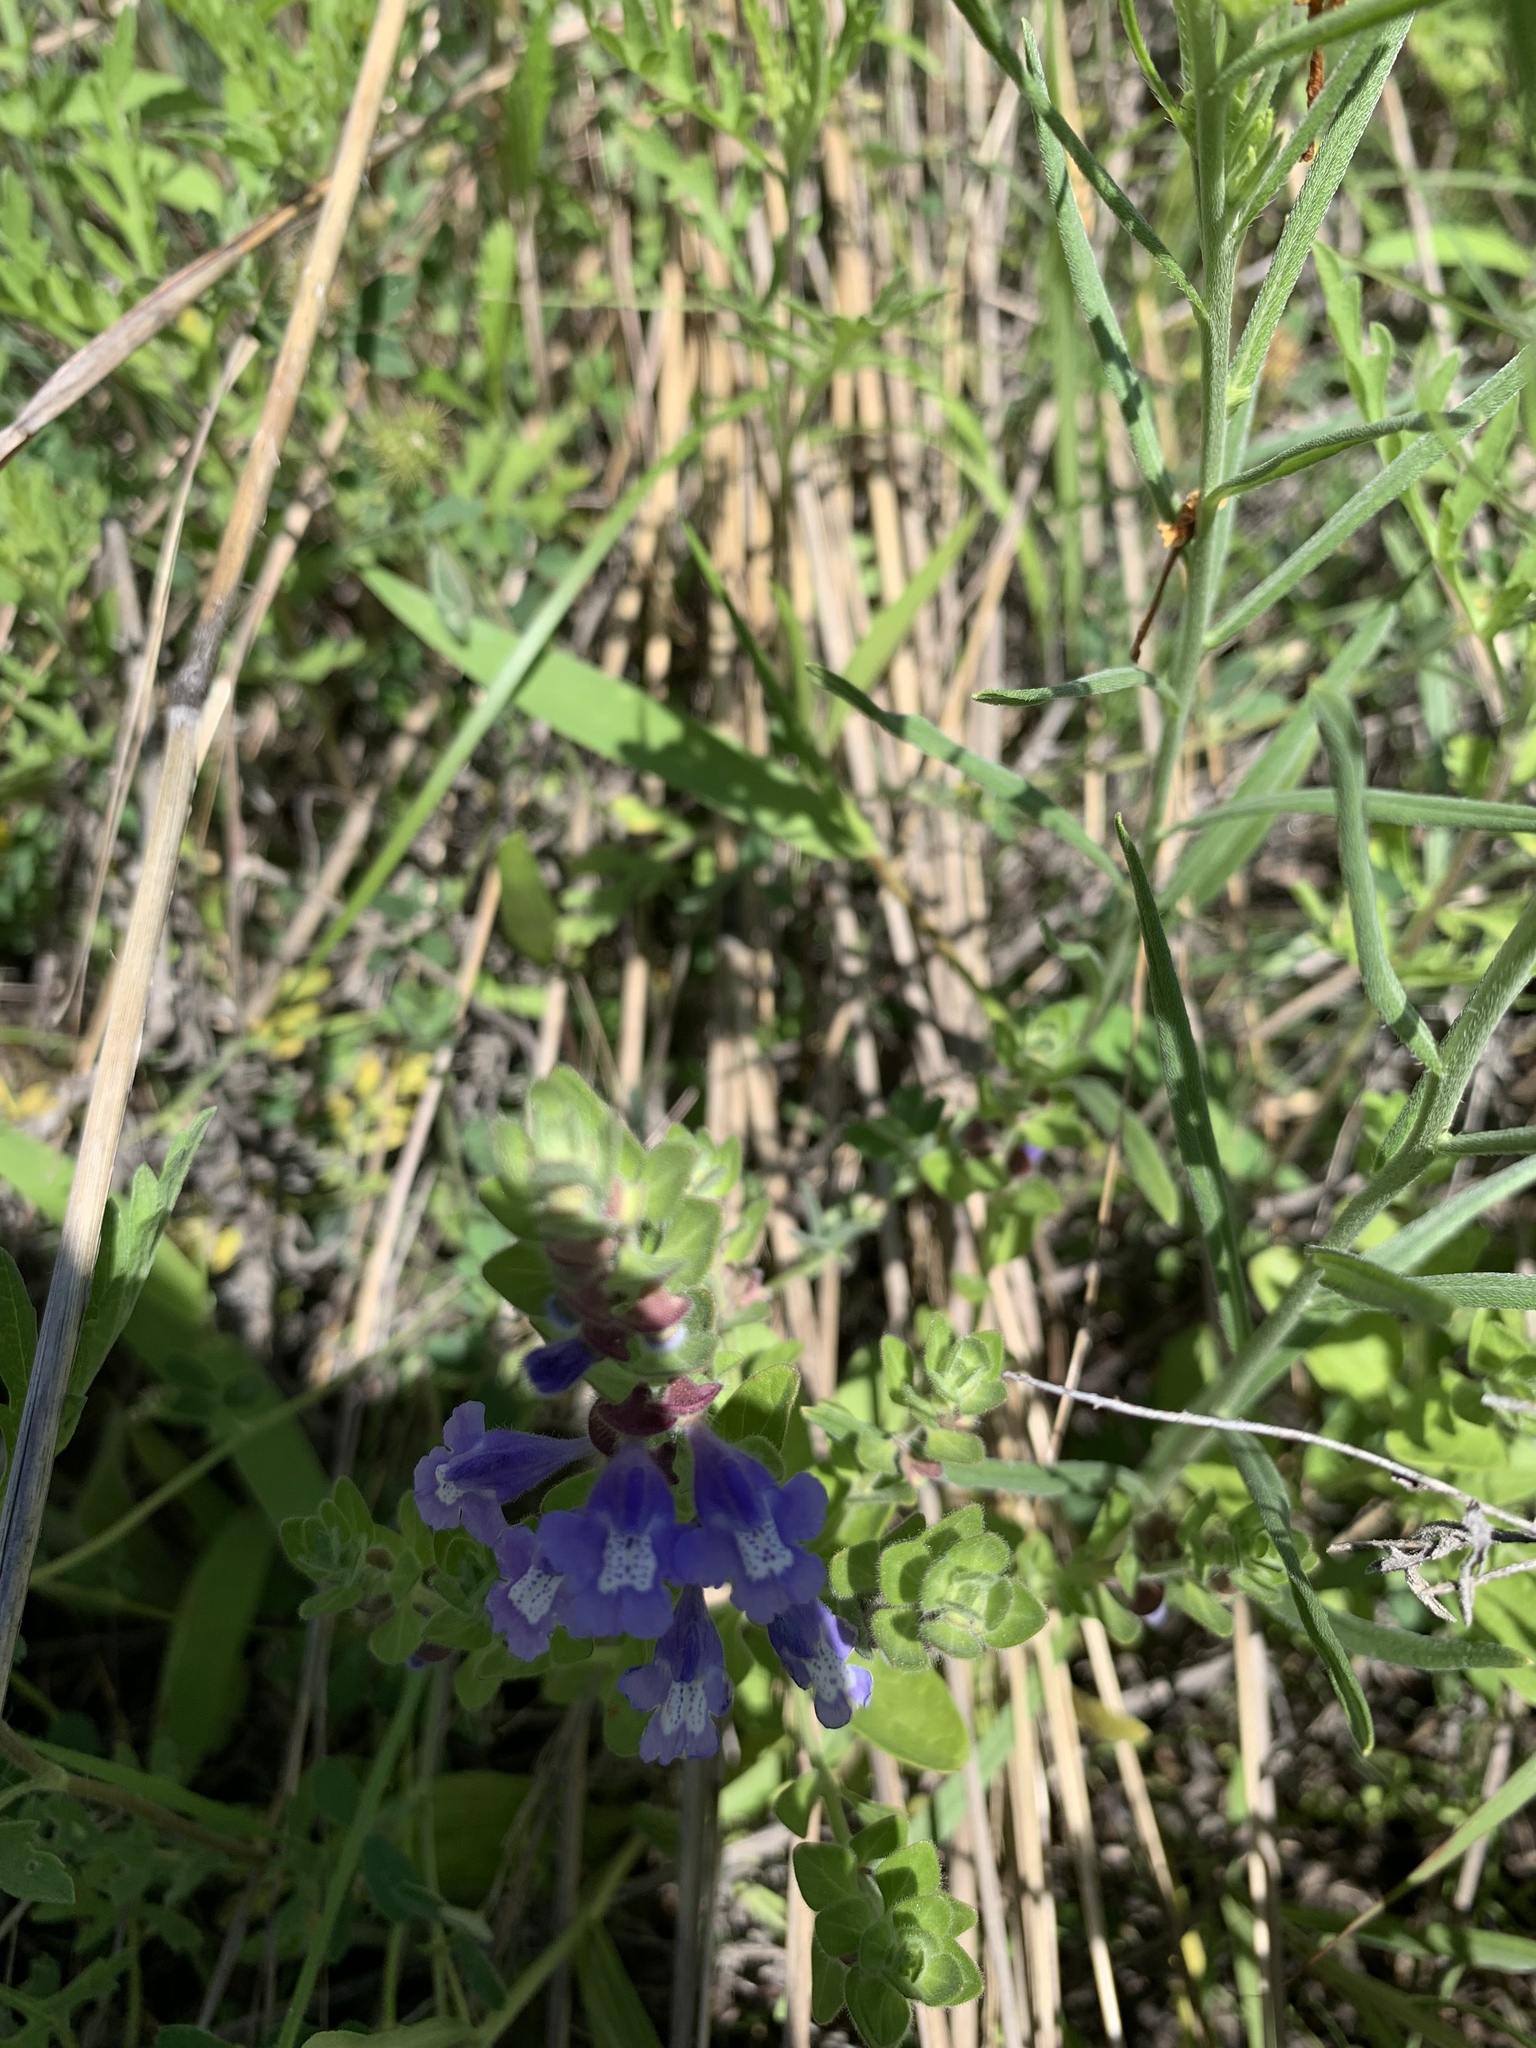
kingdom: Plantae
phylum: Tracheophyta
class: Magnoliopsida
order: Lamiales
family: Lamiaceae
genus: Scutellaria
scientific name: Scutellaria drummondii
